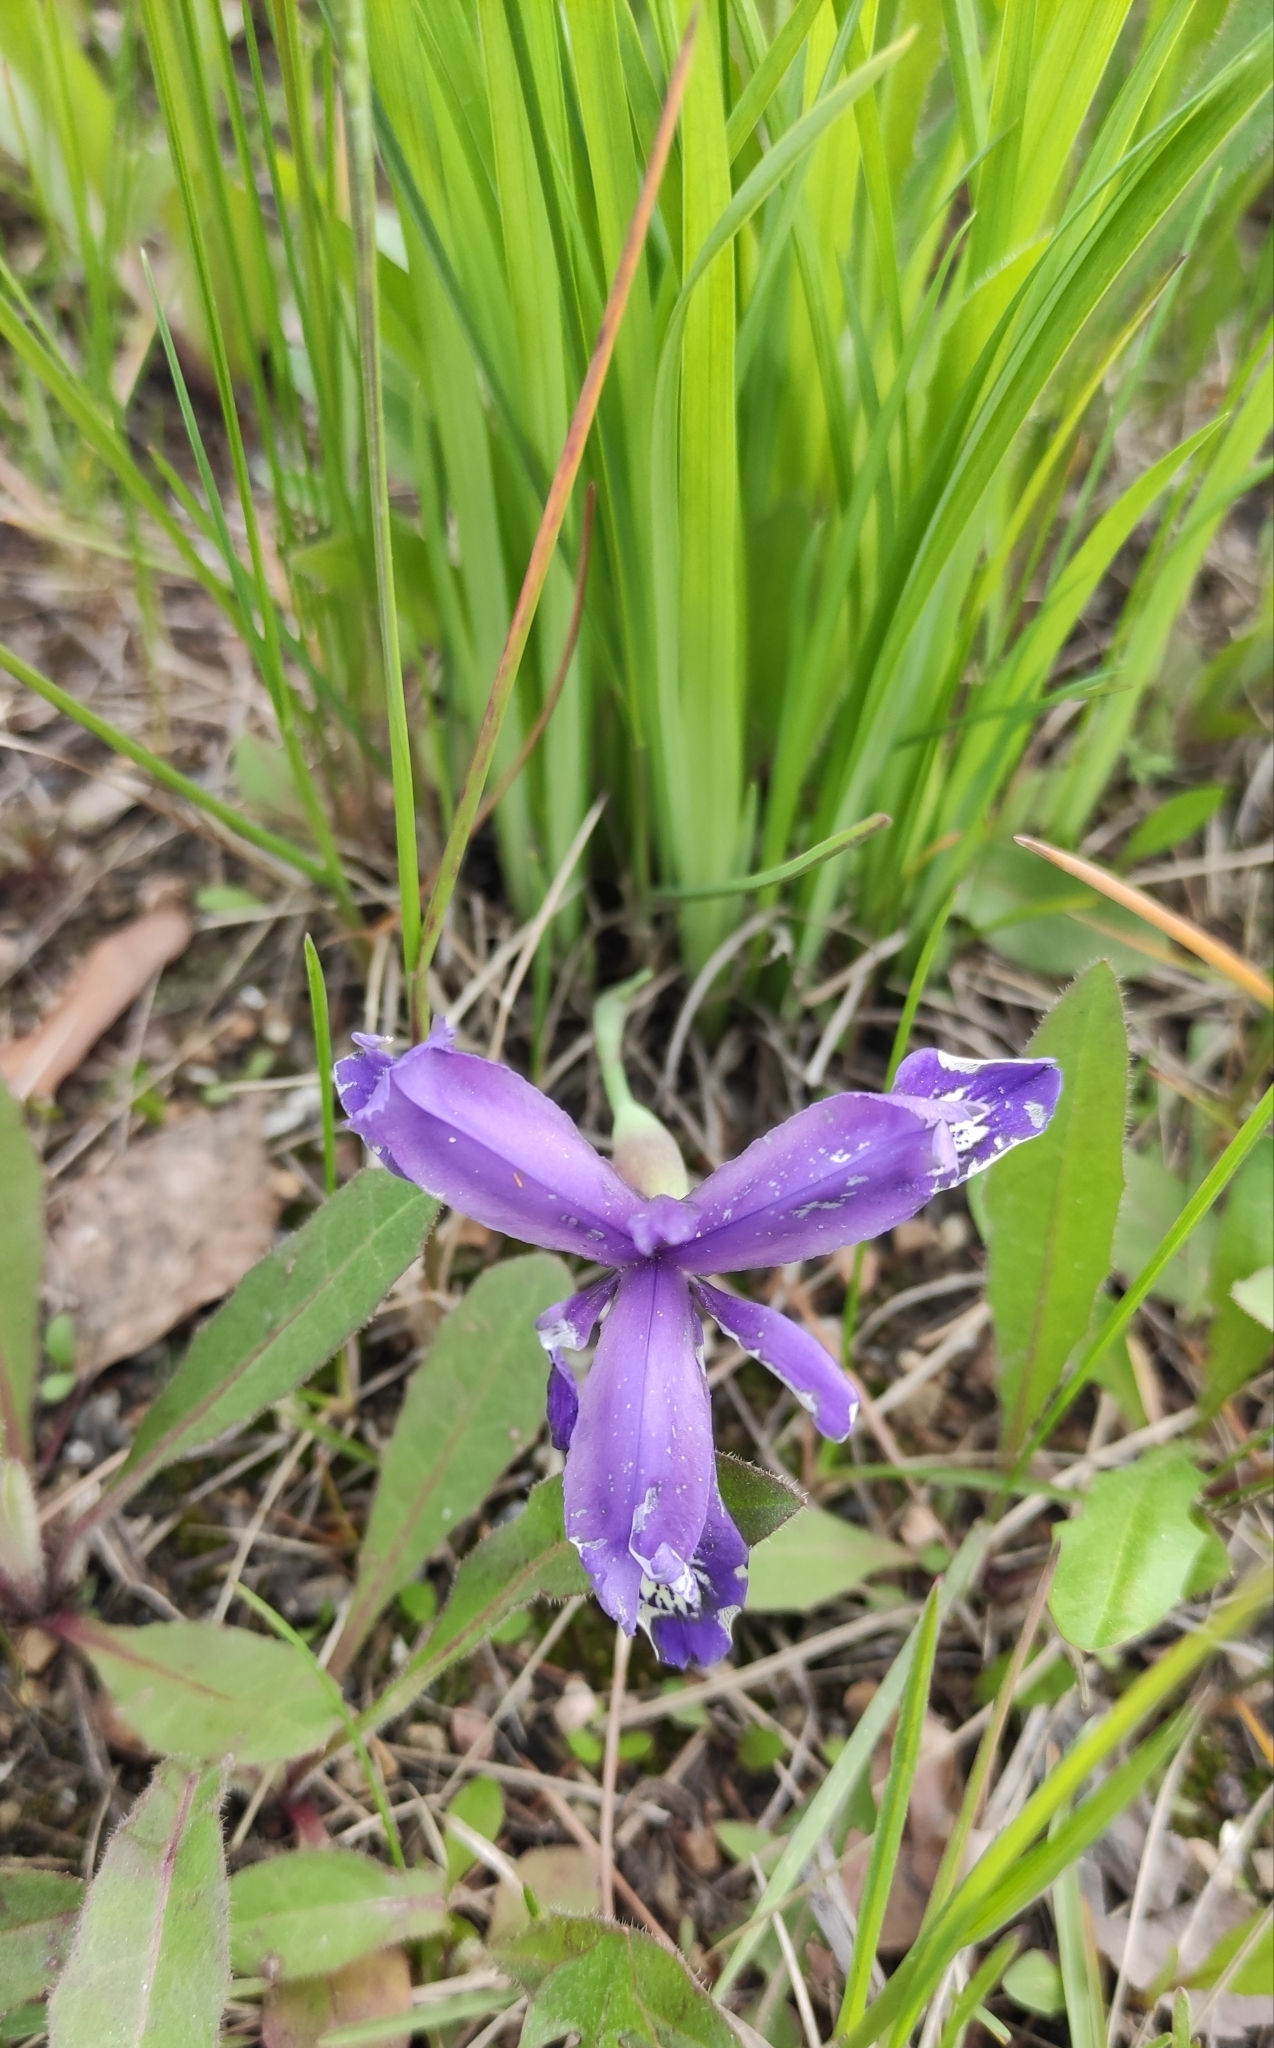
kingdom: Plantae
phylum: Tracheophyta
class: Liliopsida
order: Asparagales
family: Iridaceae
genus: Iris
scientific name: Iris ruthenica
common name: Purple-bract iris
